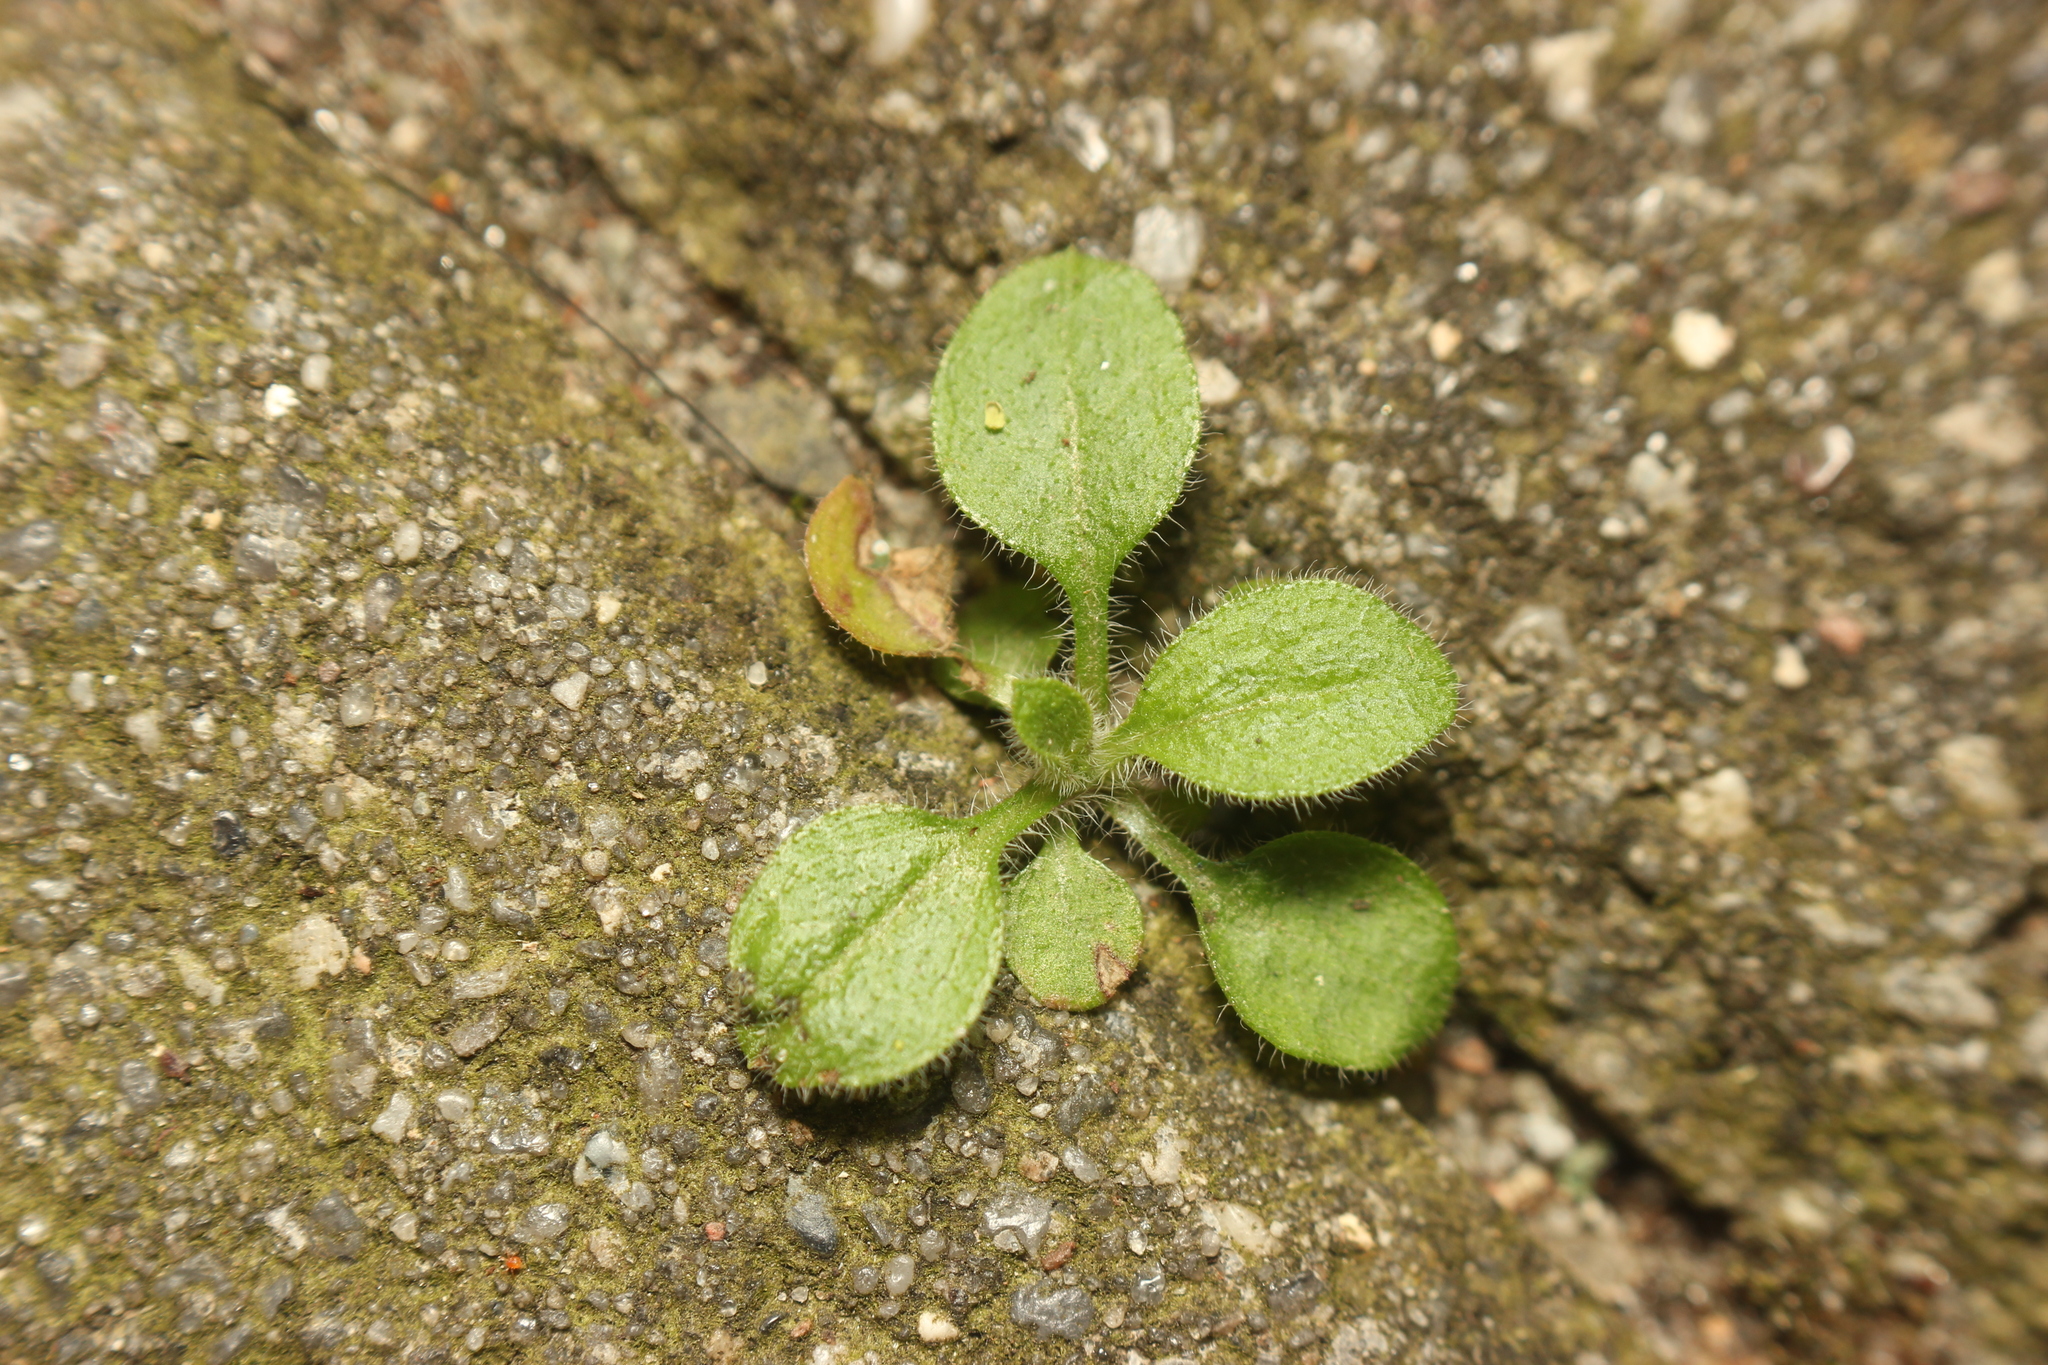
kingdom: Plantae
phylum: Tracheophyta
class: Magnoliopsida
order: Brassicales
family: Brassicaceae
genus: Arabidopsis
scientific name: Arabidopsis thaliana
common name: Thale cress
